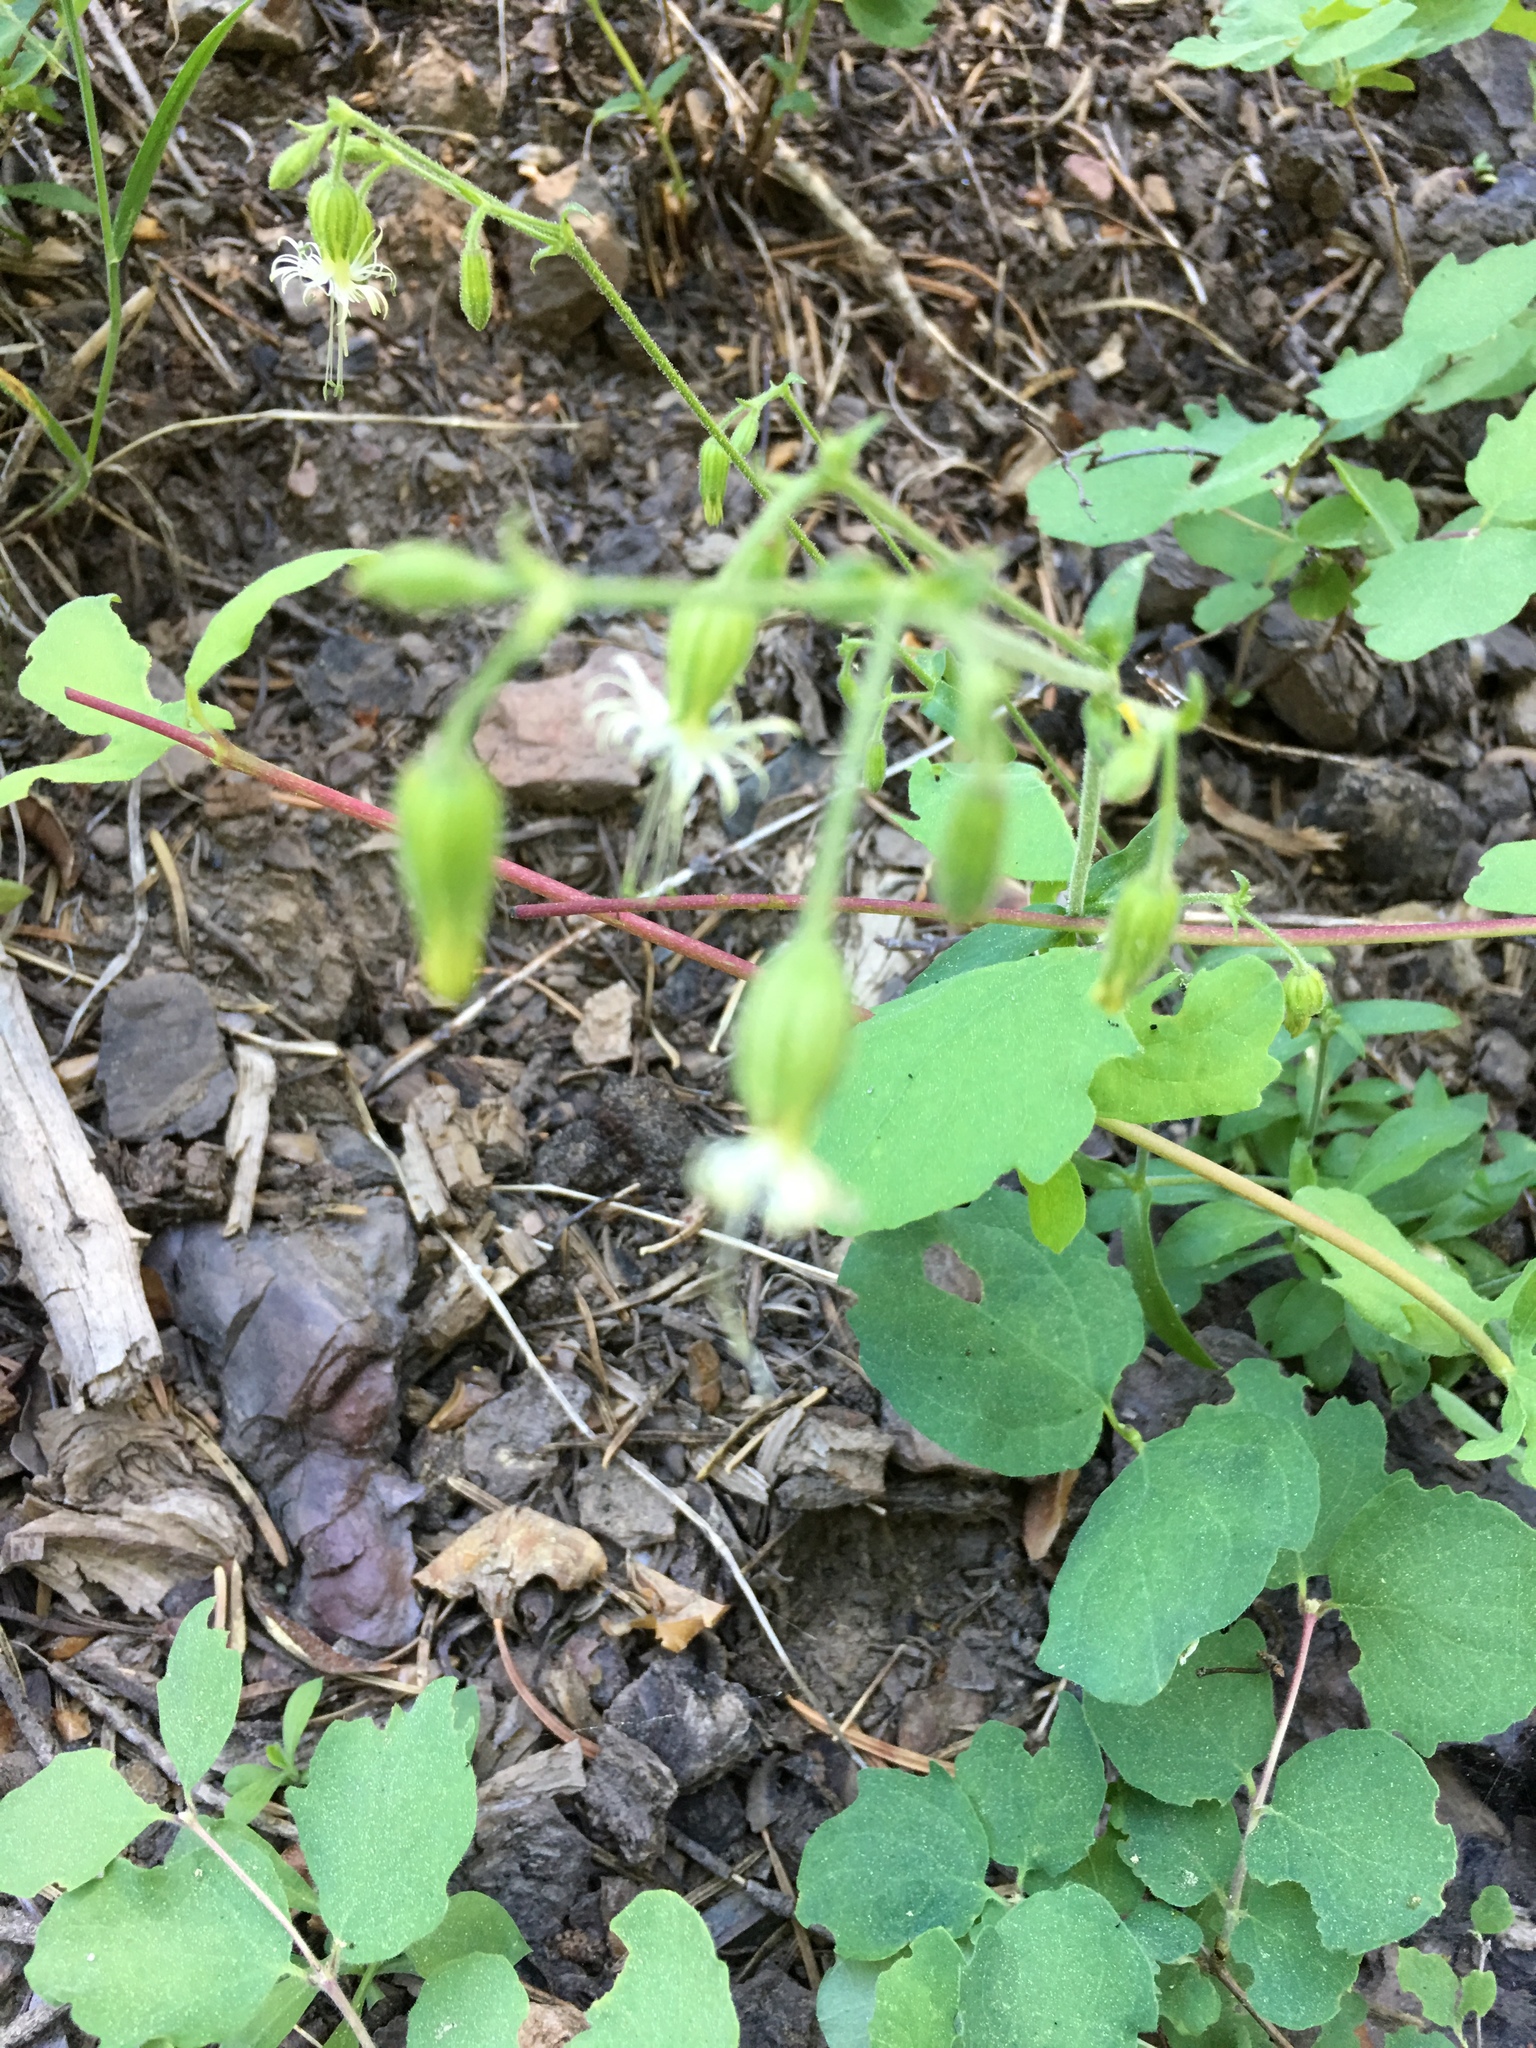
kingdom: Plantae
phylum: Tracheophyta
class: Magnoliopsida
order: Caryophyllales
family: Caryophyllaceae
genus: Silene
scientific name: Silene lemmonii
